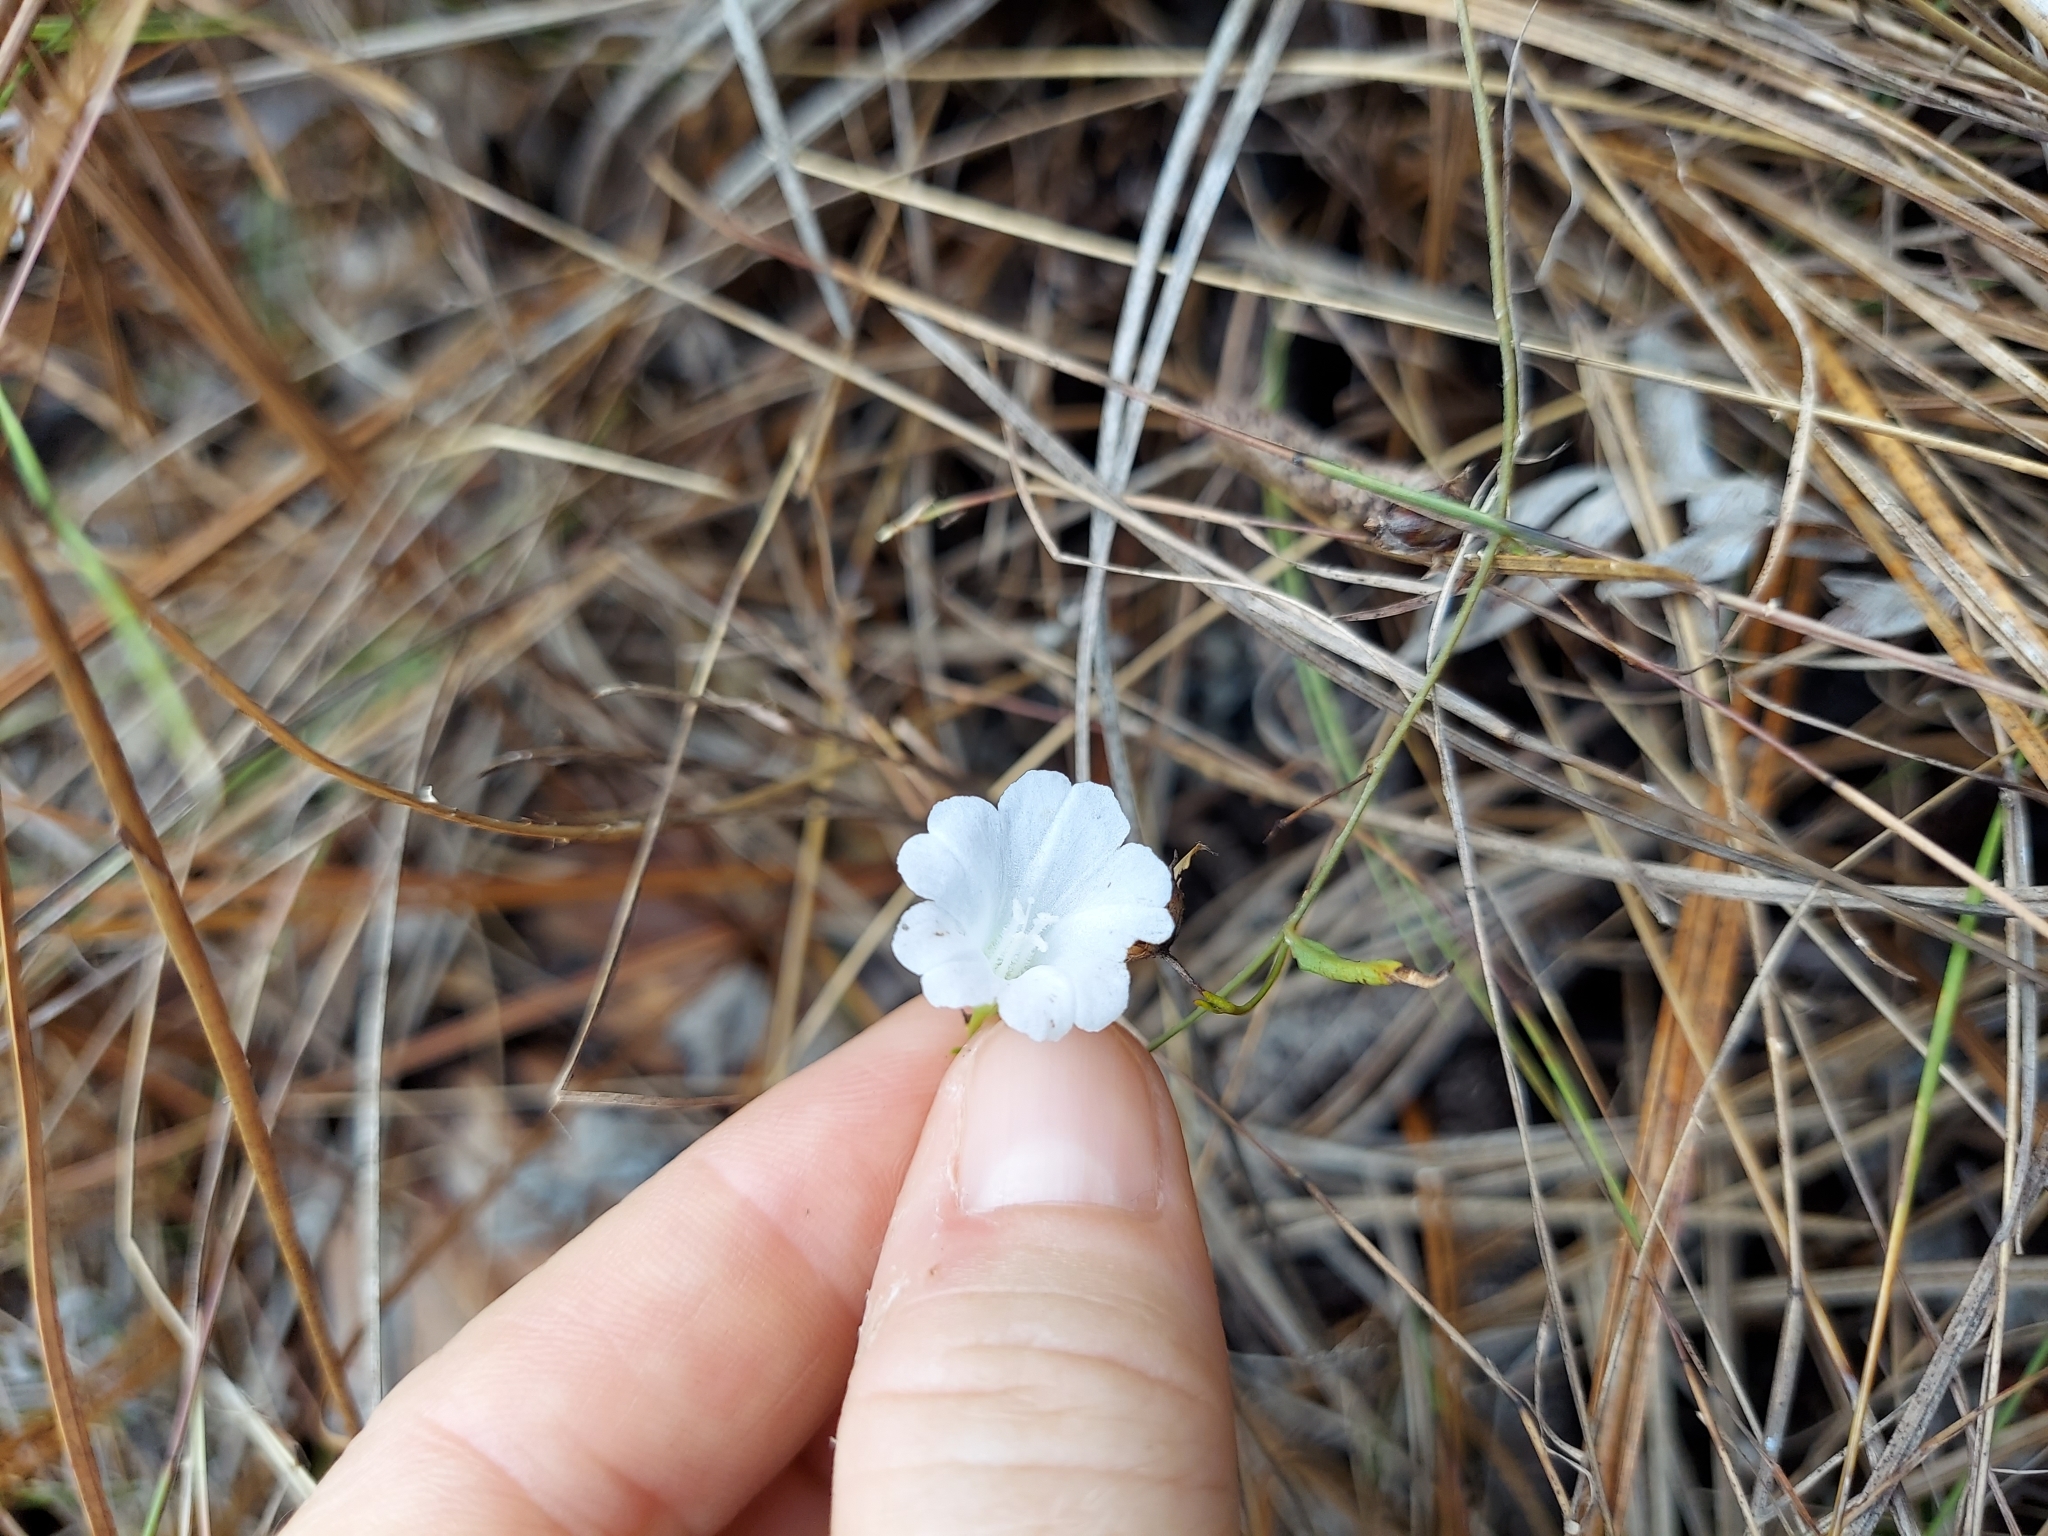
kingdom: Plantae
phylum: Tracheophyta
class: Magnoliopsida
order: Solanales
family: Convolvulaceae
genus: Stylisma
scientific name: Stylisma patens
